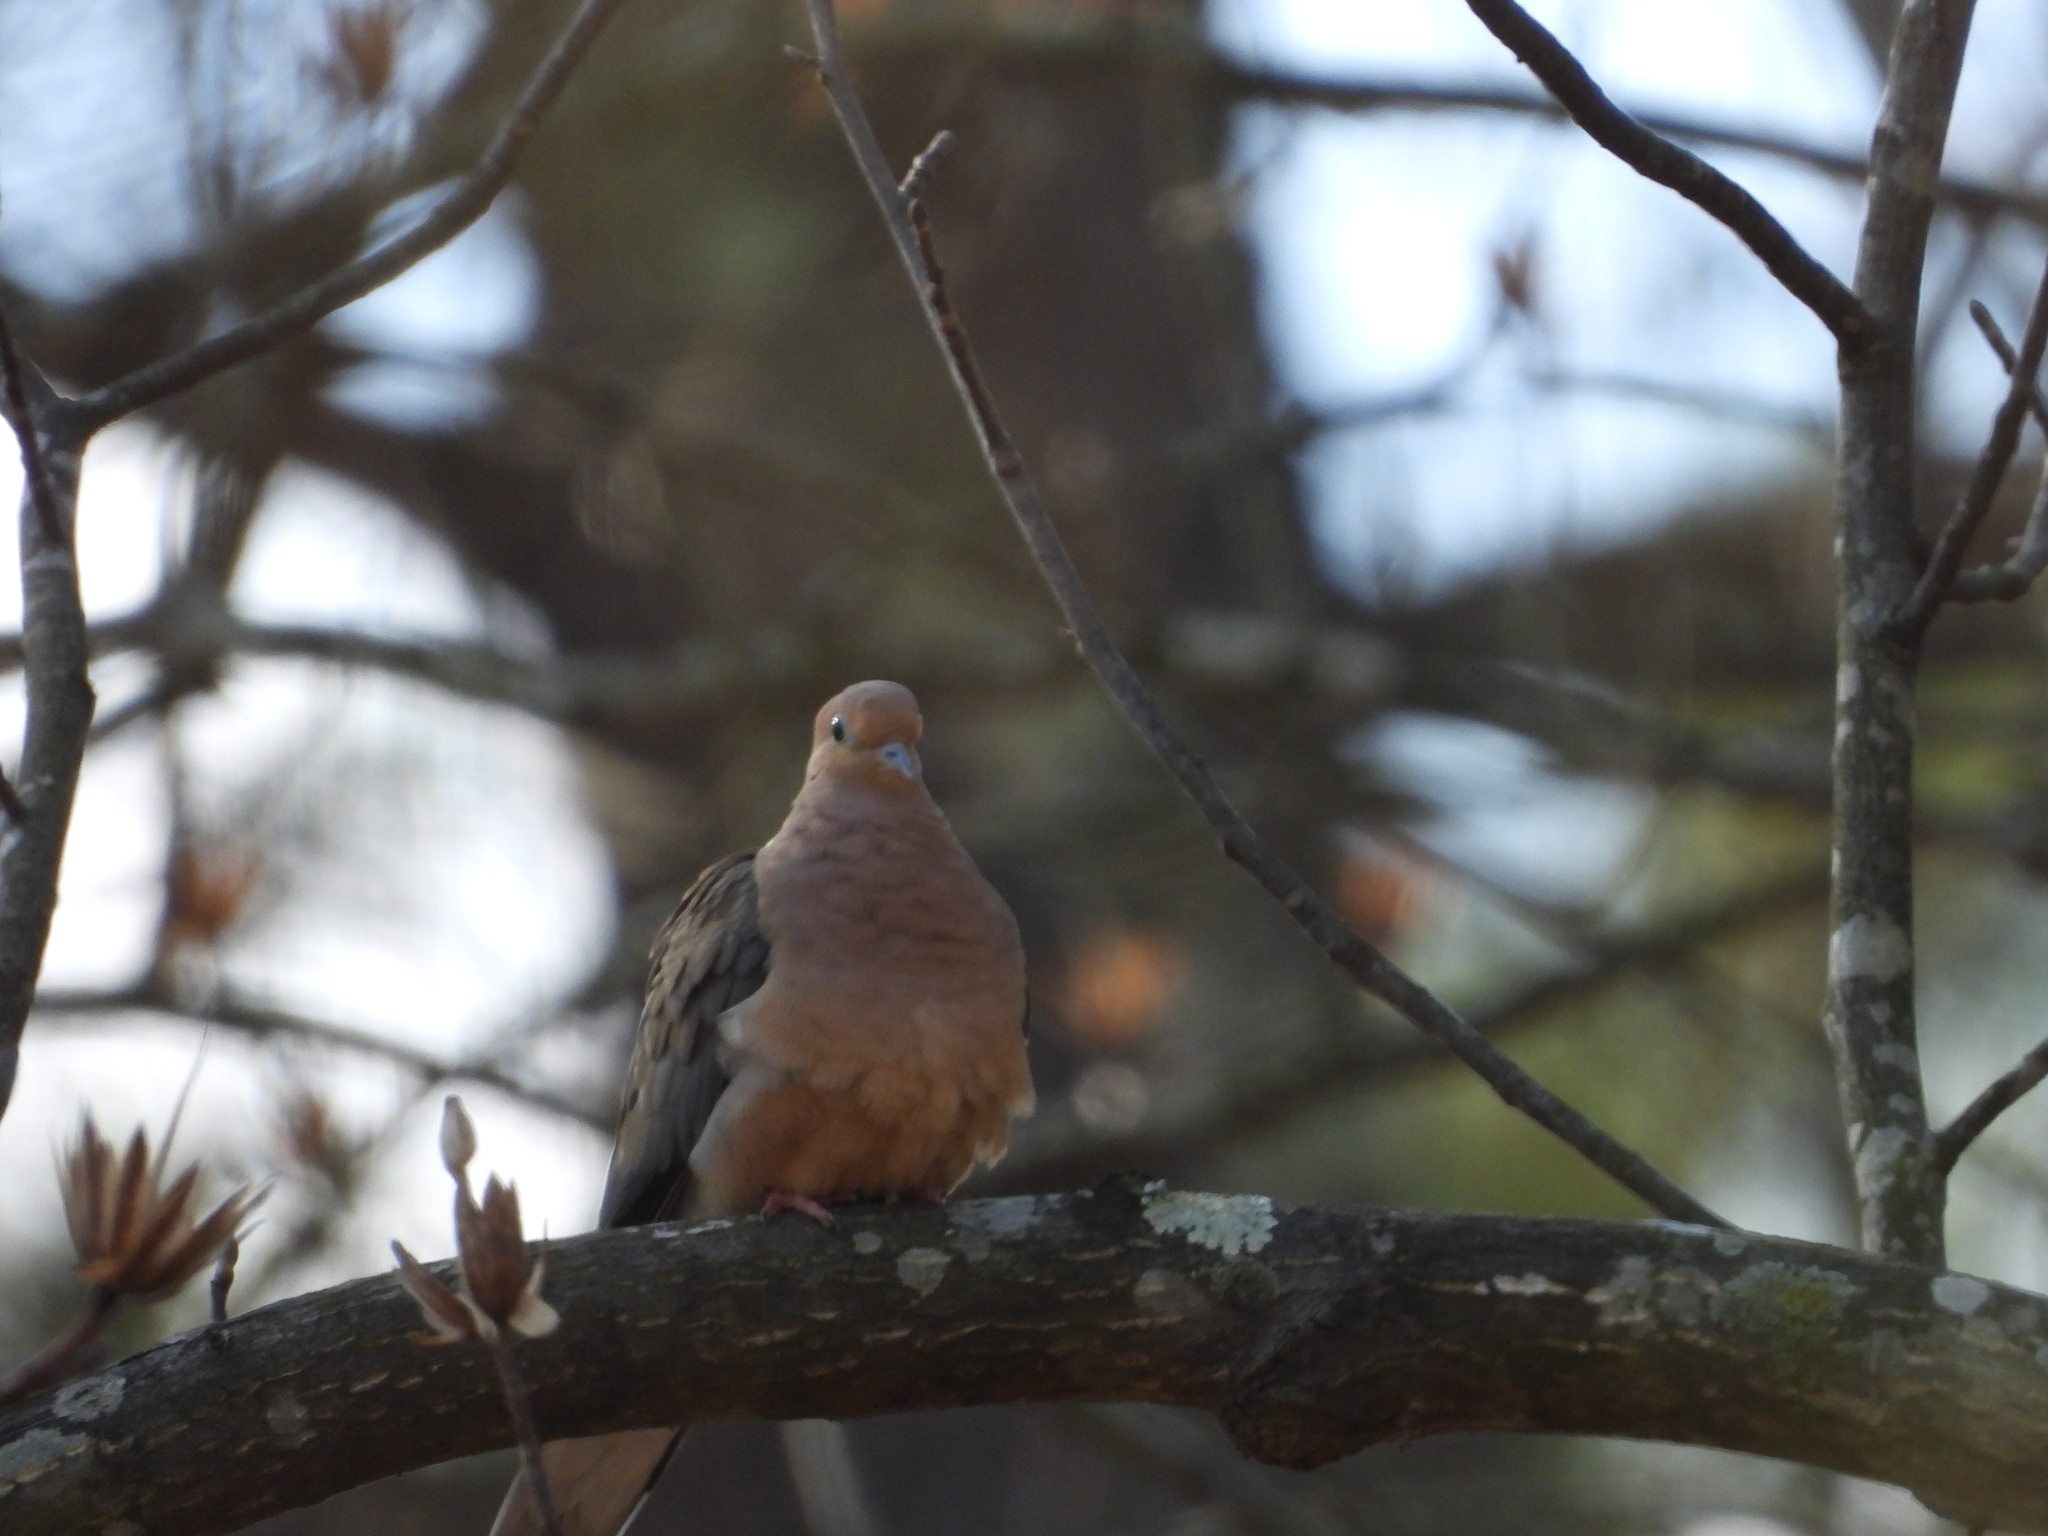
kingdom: Animalia
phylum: Chordata
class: Aves
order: Columbiformes
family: Columbidae
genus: Zenaida
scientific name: Zenaida macroura
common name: Mourning dove
